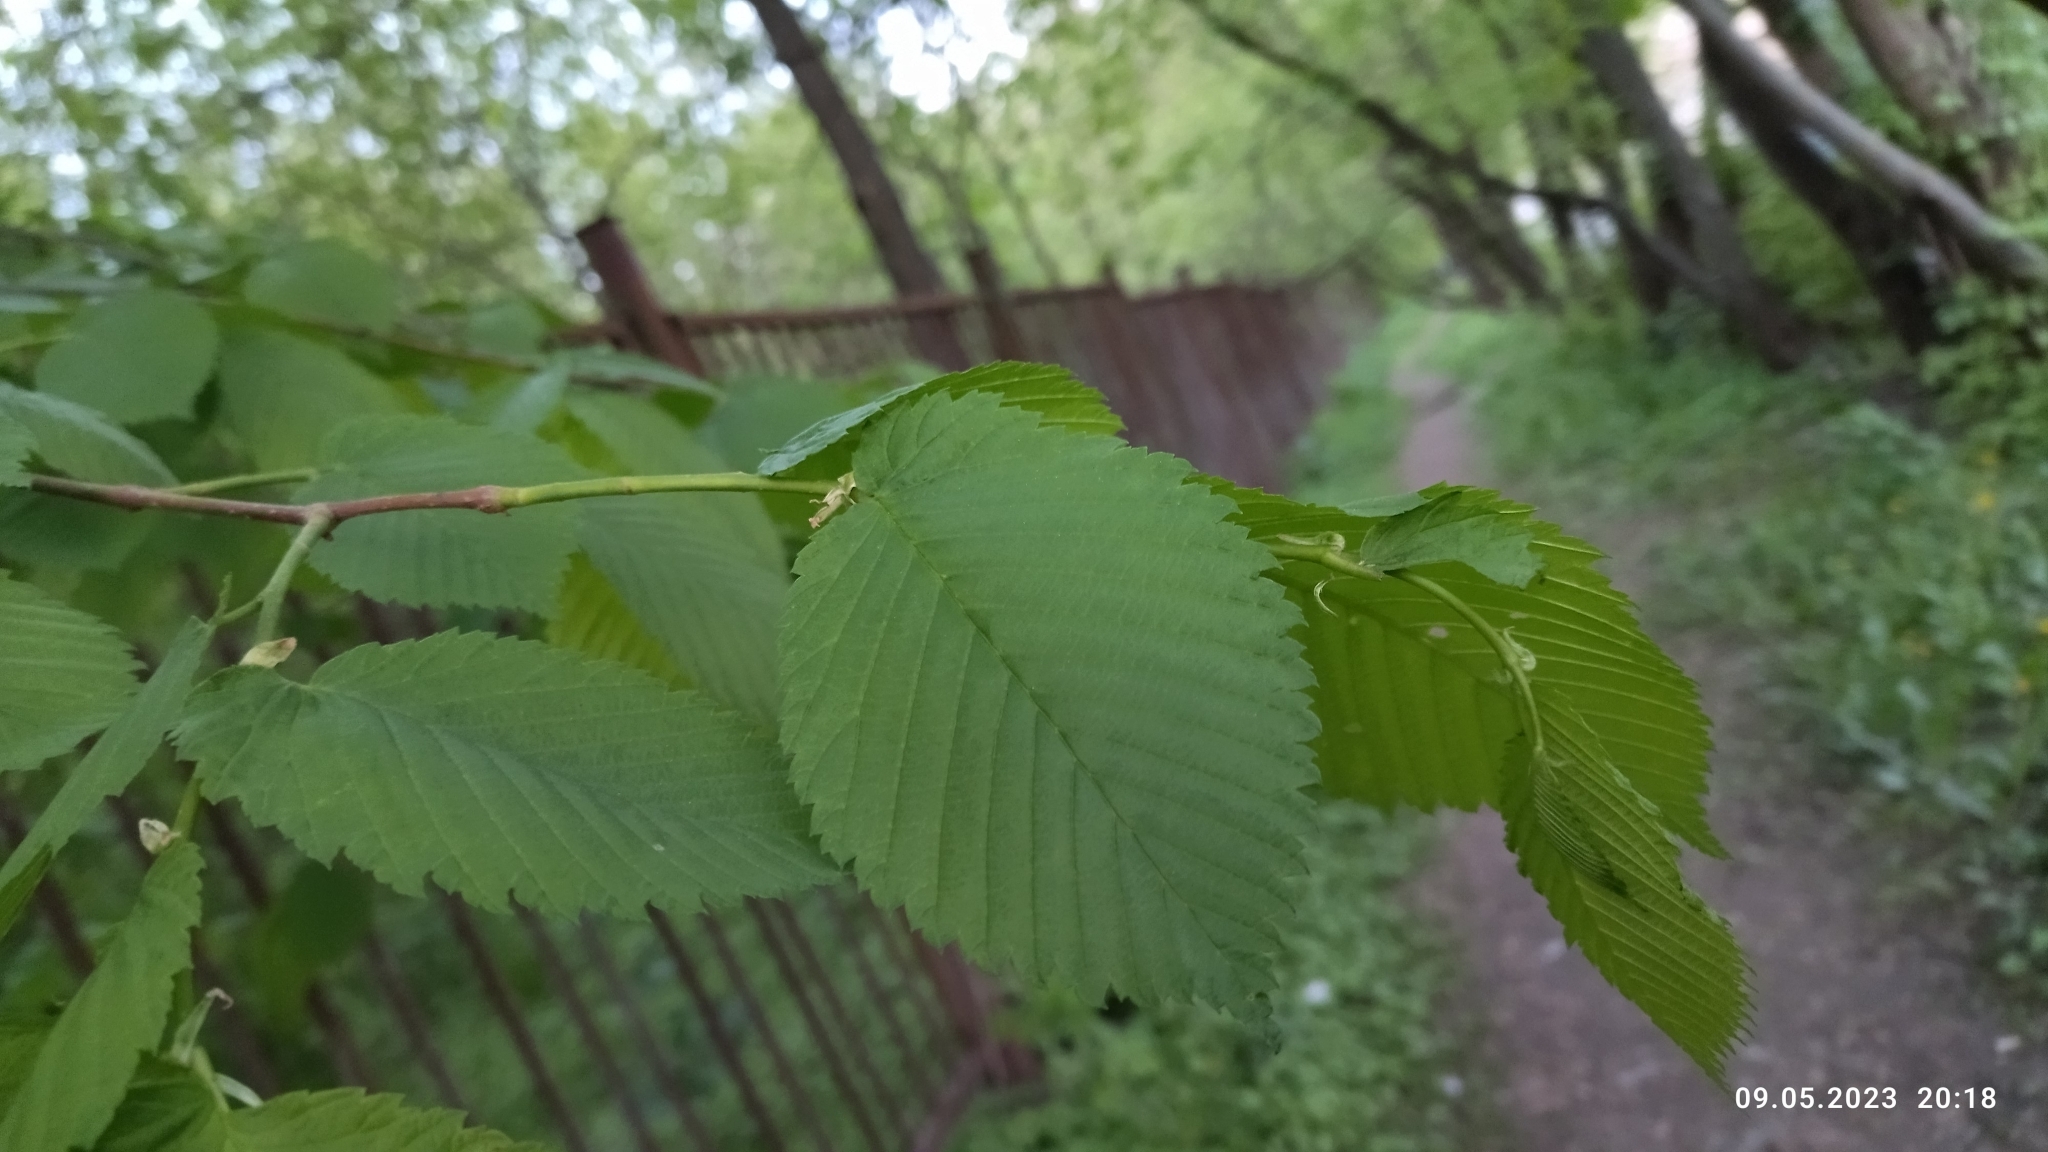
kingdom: Plantae
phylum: Tracheophyta
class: Magnoliopsida
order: Rosales
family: Ulmaceae
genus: Ulmus
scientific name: Ulmus laevis
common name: European white-elm
